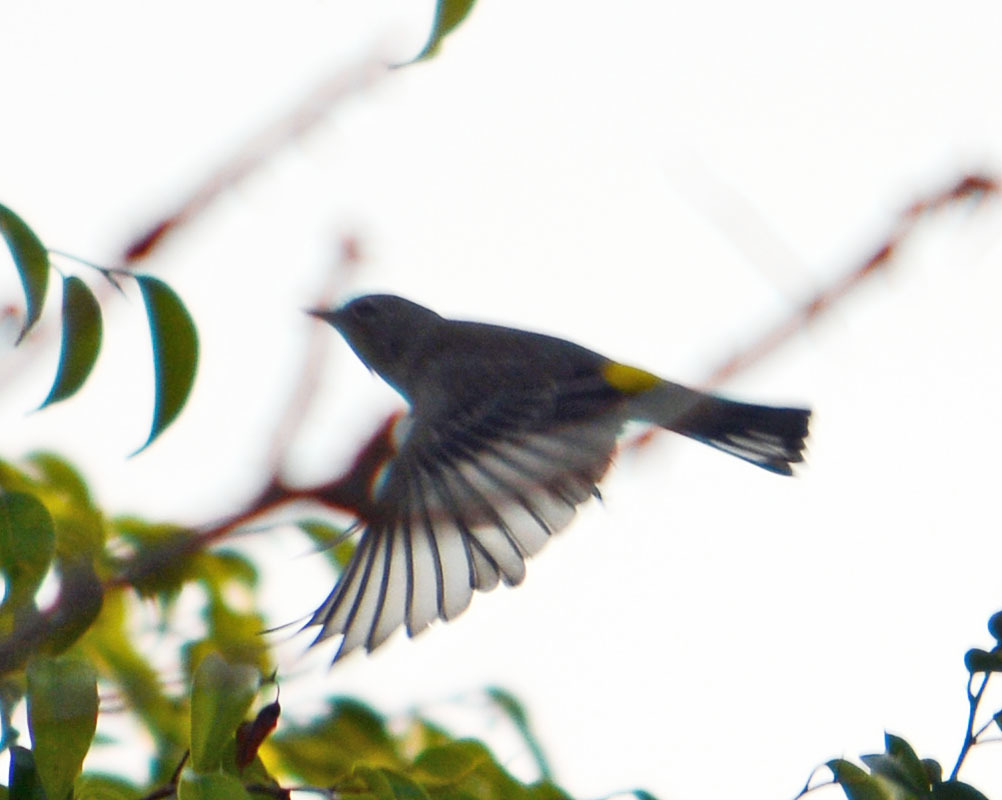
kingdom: Animalia
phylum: Chordata
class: Aves
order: Passeriformes
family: Parulidae
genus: Setophaga
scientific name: Setophaga coronata
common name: Myrtle warbler
